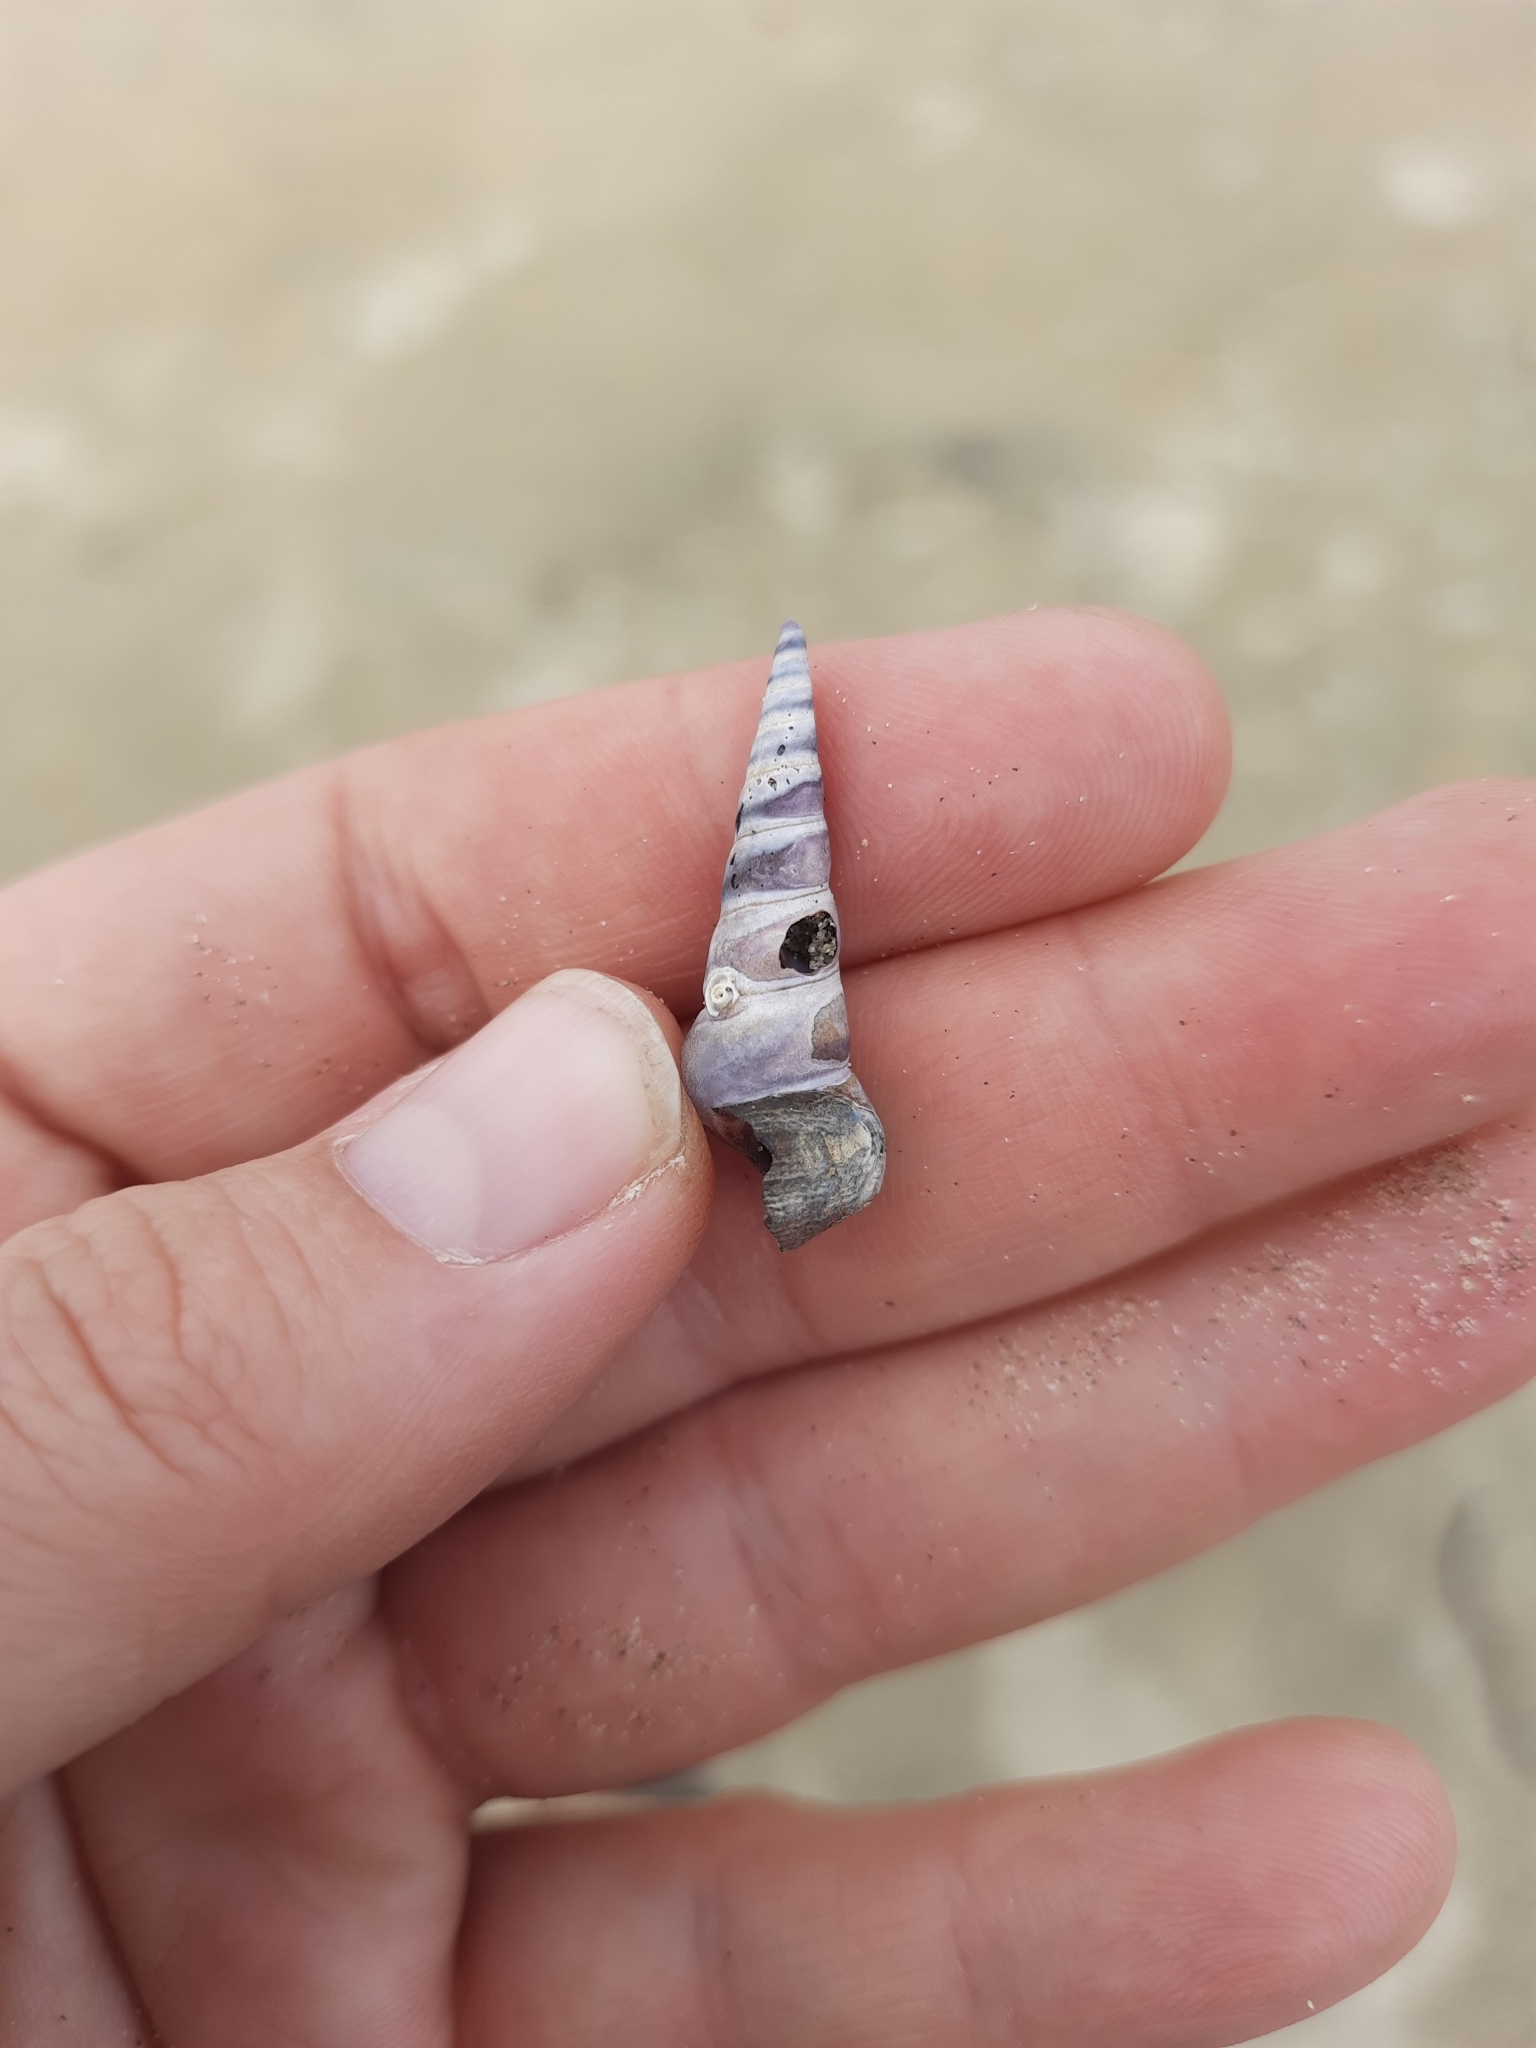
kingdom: Animalia
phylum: Mollusca
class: Gastropoda
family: Turritellidae
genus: Maoricolpus
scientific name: Maoricolpus roseus
